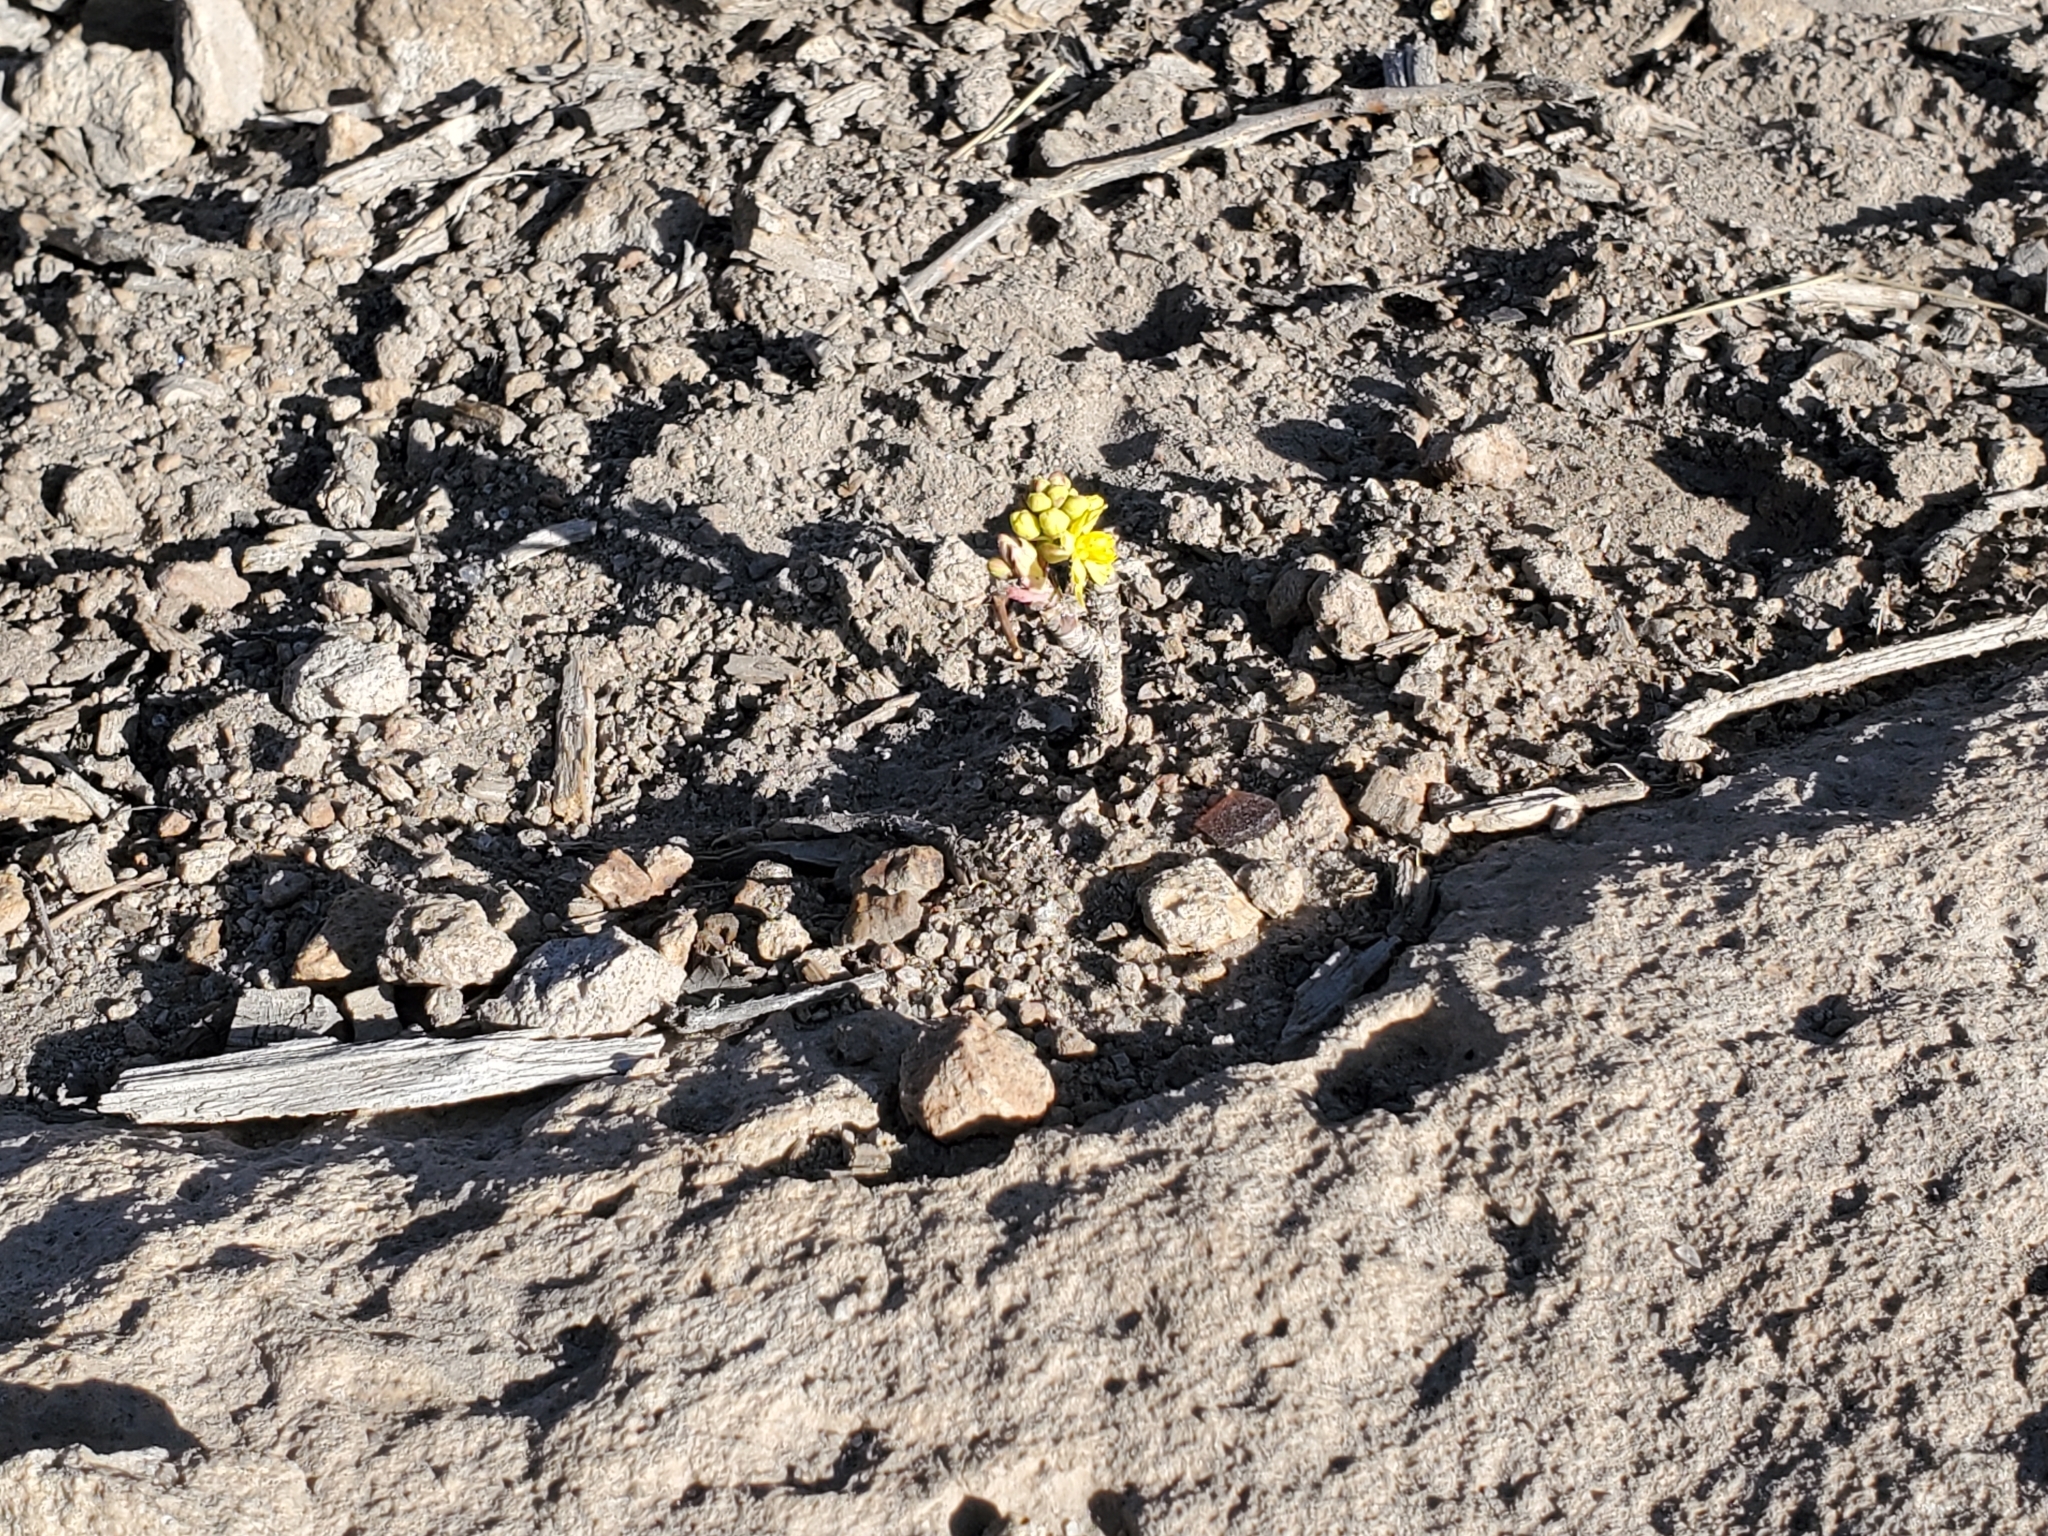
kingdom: Plantae
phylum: Tracheophyta
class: Magnoliopsida
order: Ranunculales
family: Berberidaceae
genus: Mahonia
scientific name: Mahonia repens
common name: Creeping oregon-grape
